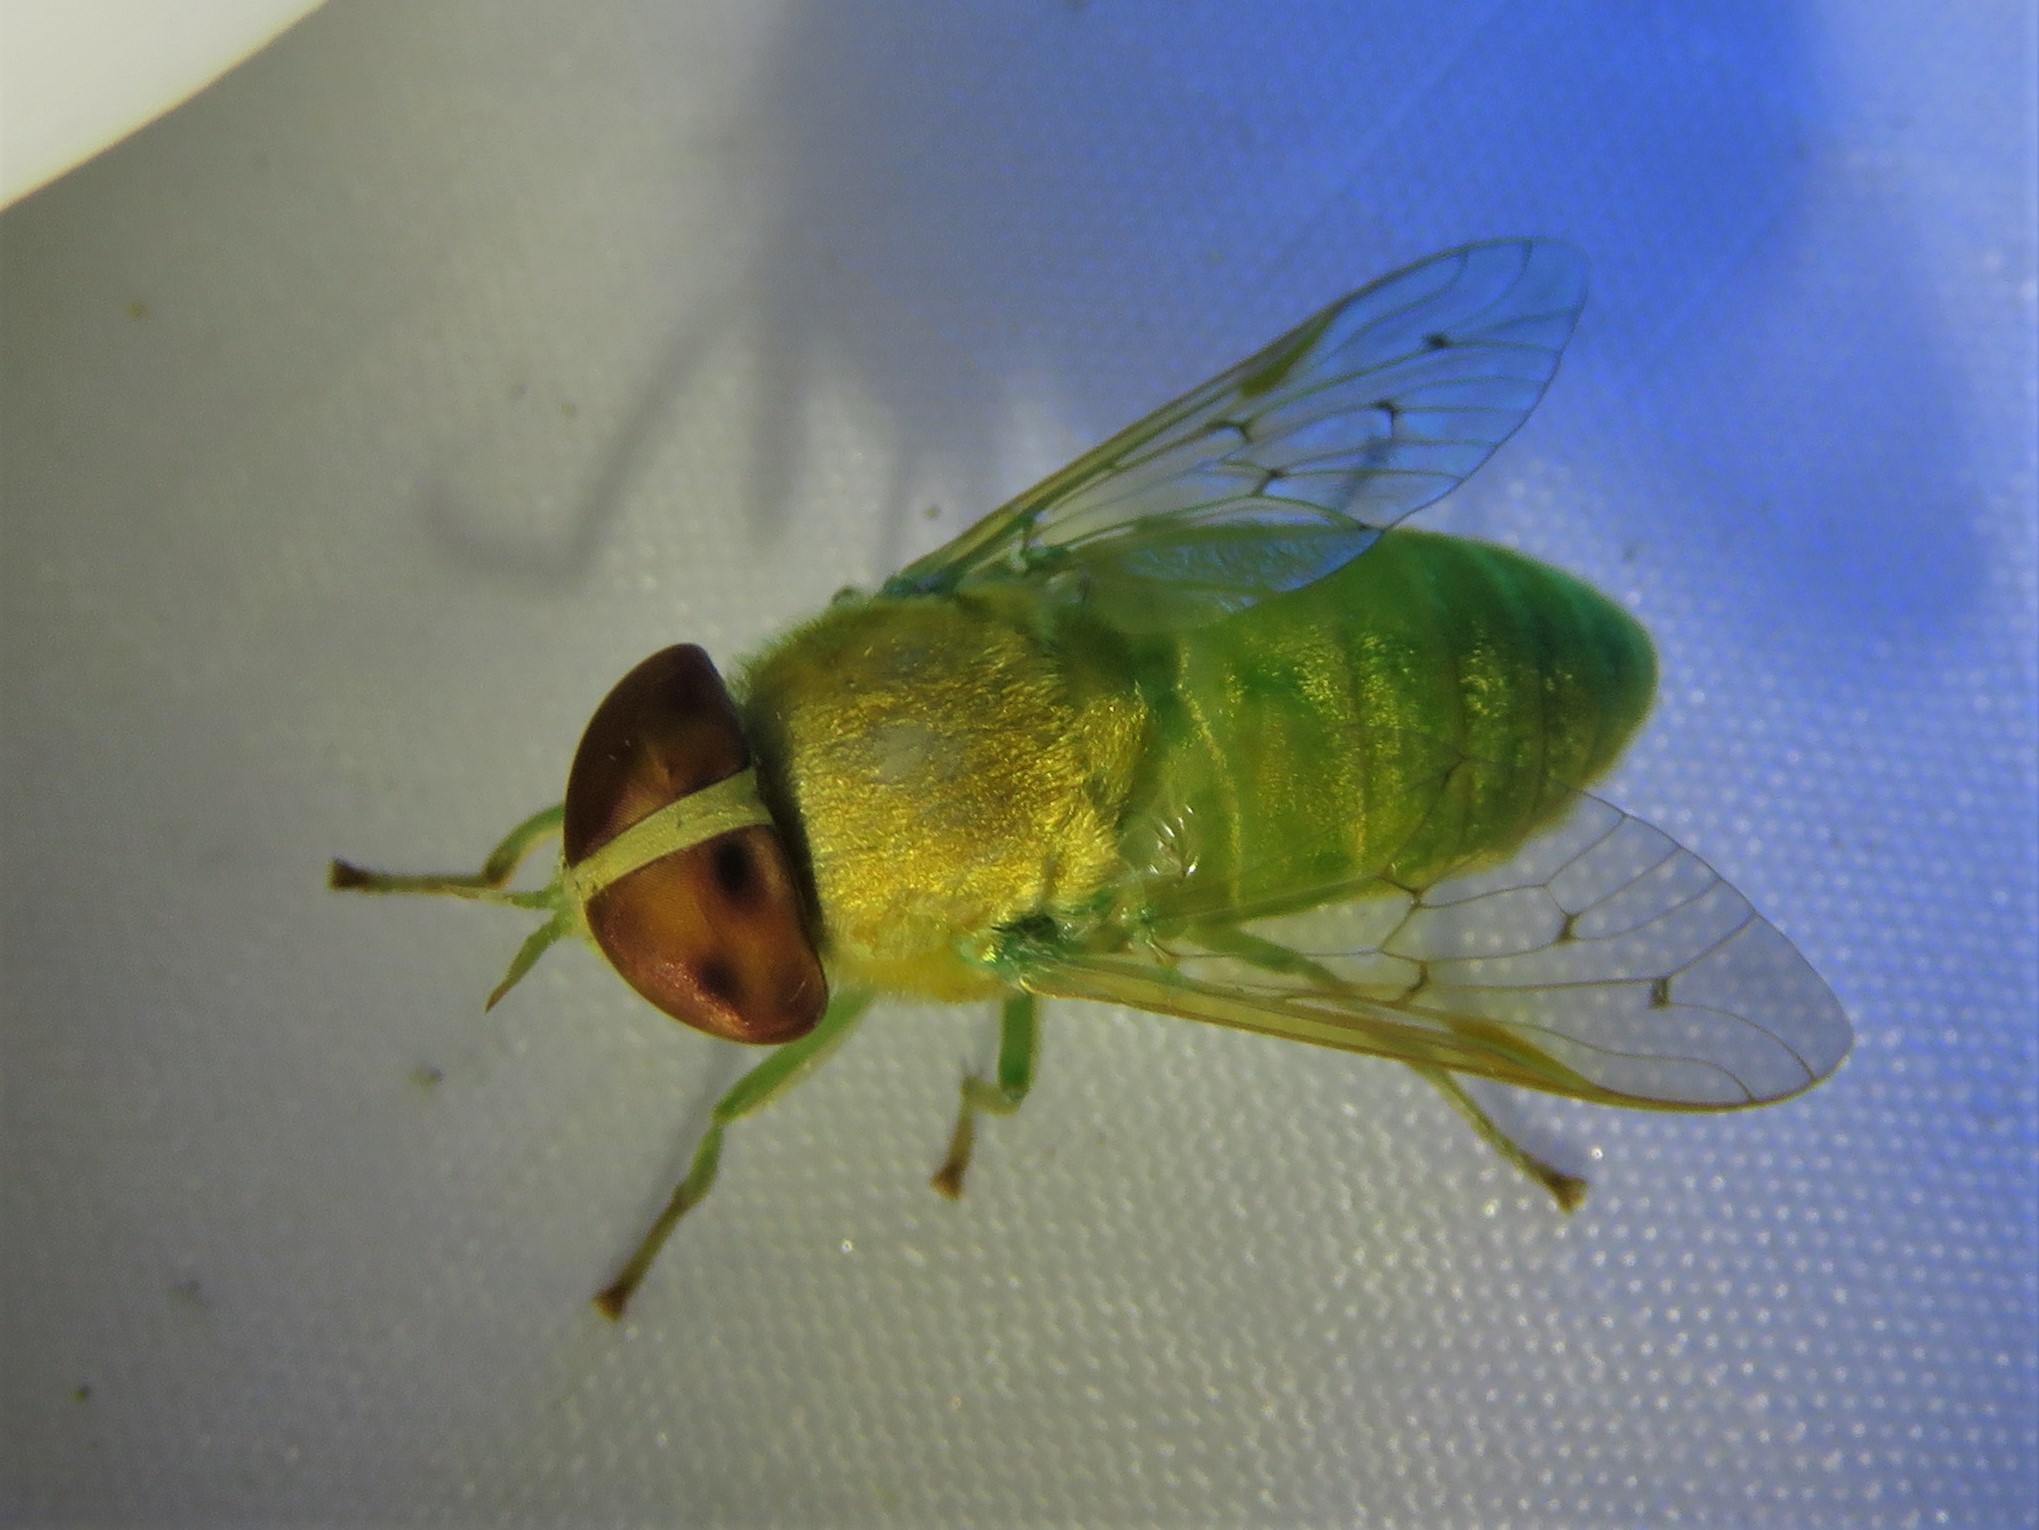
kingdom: Animalia
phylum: Arthropoda
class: Insecta
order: Diptera
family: Tabanidae
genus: Chlorotabanus
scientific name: Chlorotabanus crepuscularis
